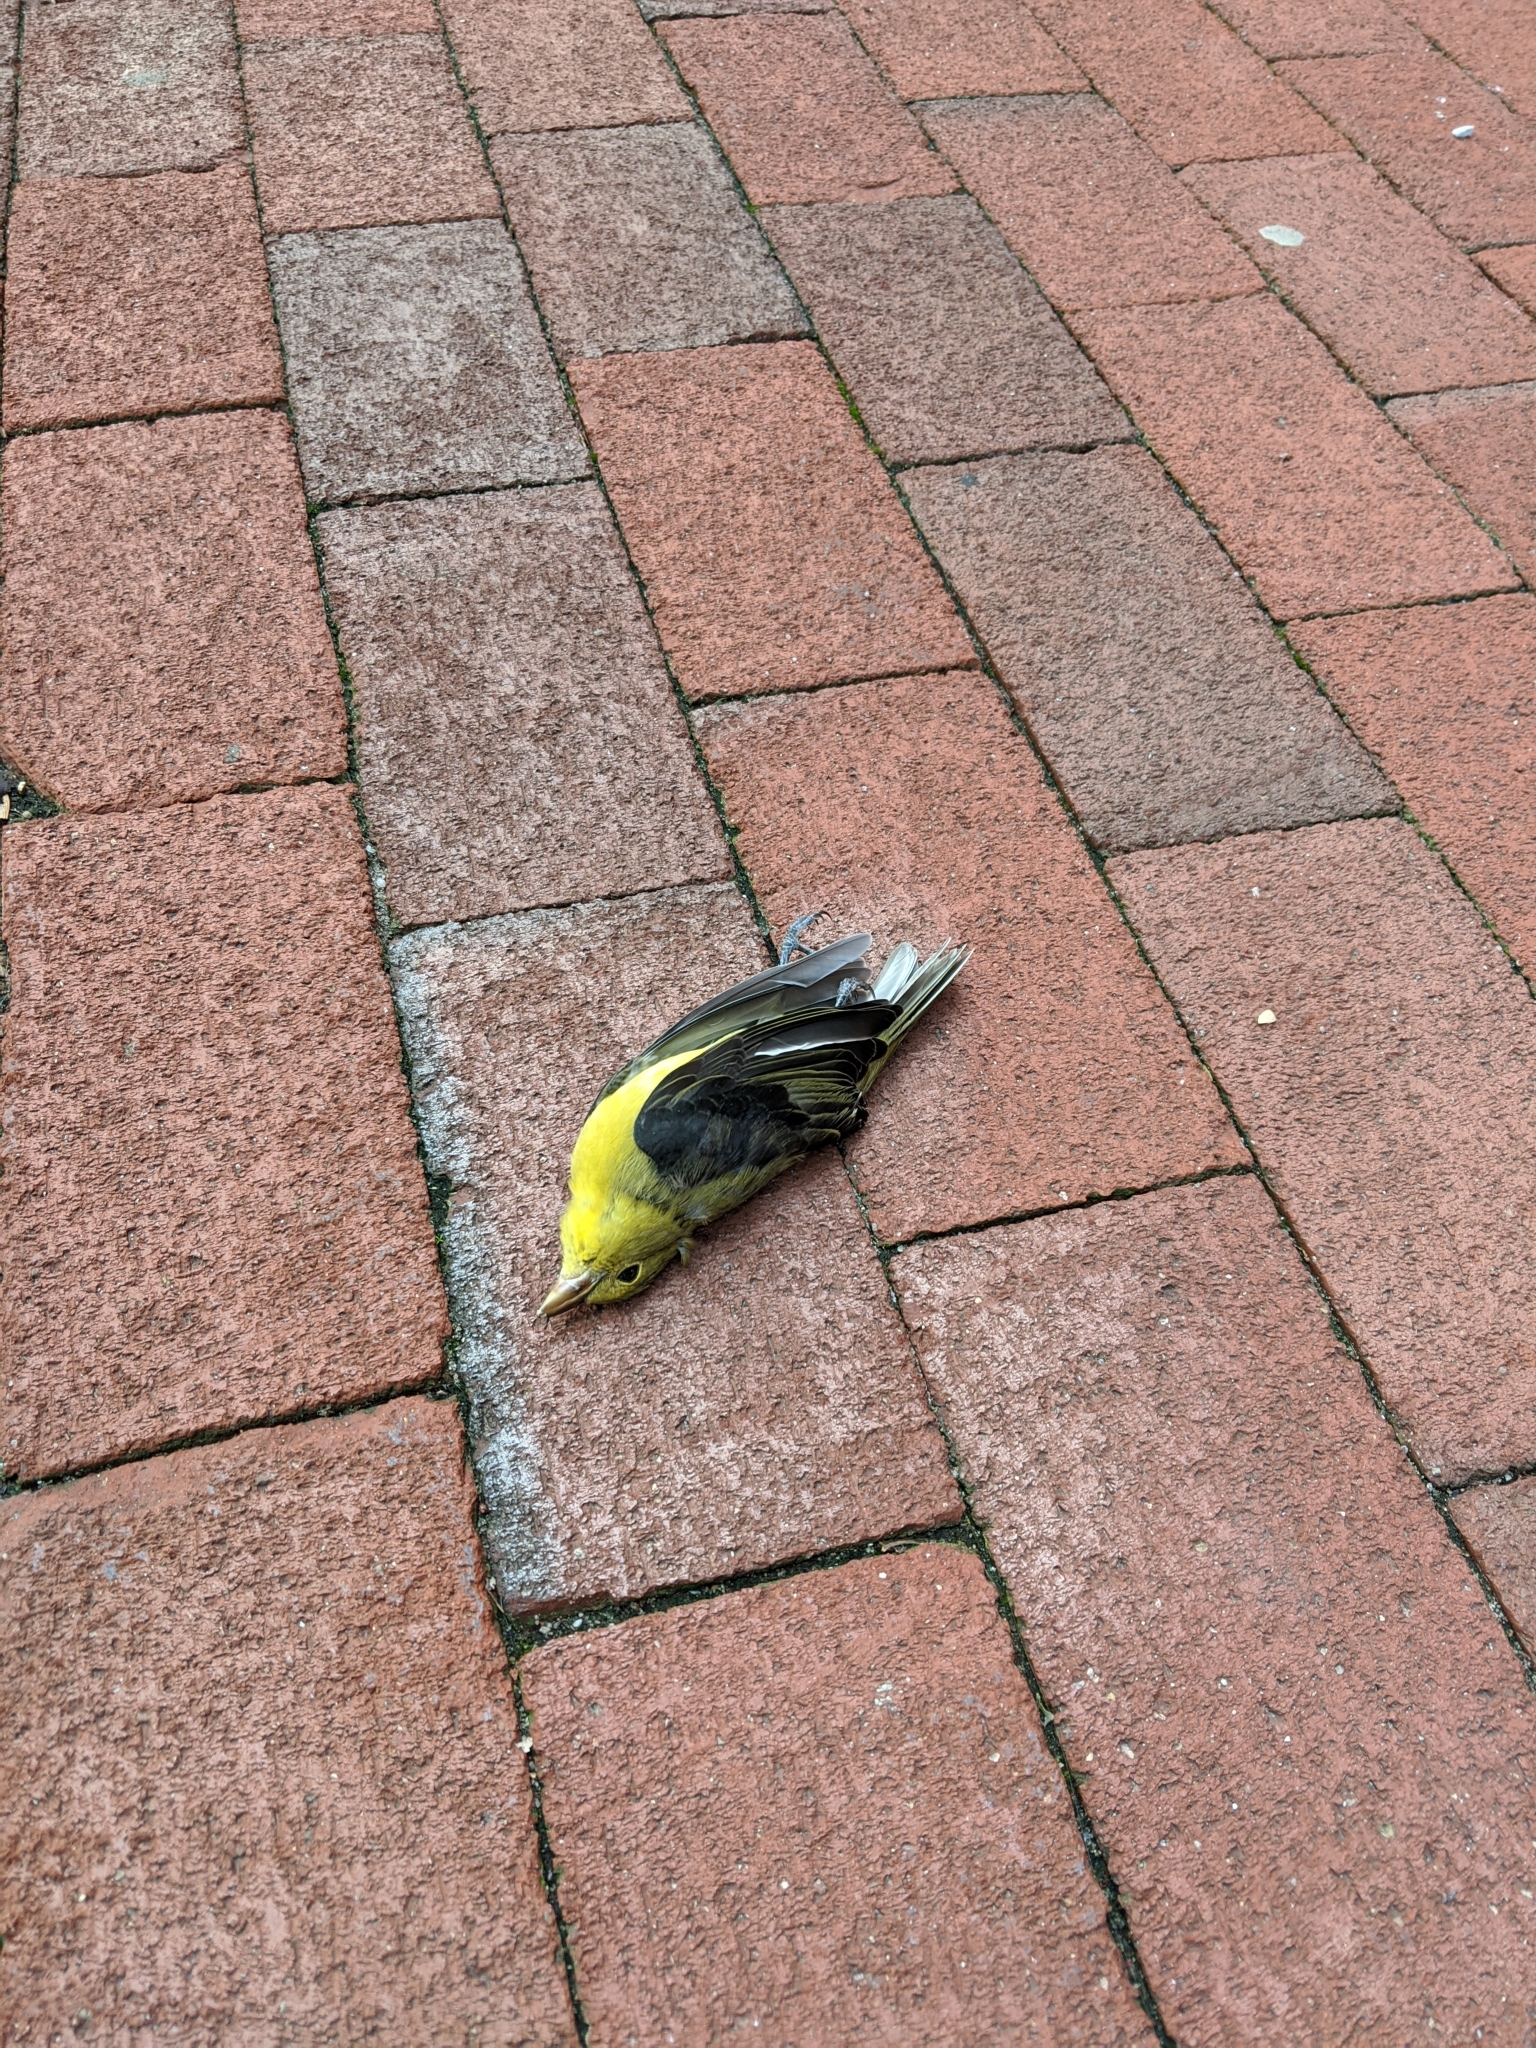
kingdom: Animalia
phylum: Chordata
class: Aves
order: Passeriformes
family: Cardinalidae
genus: Piranga
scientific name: Piranga olivacea
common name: Scarlet tanager
